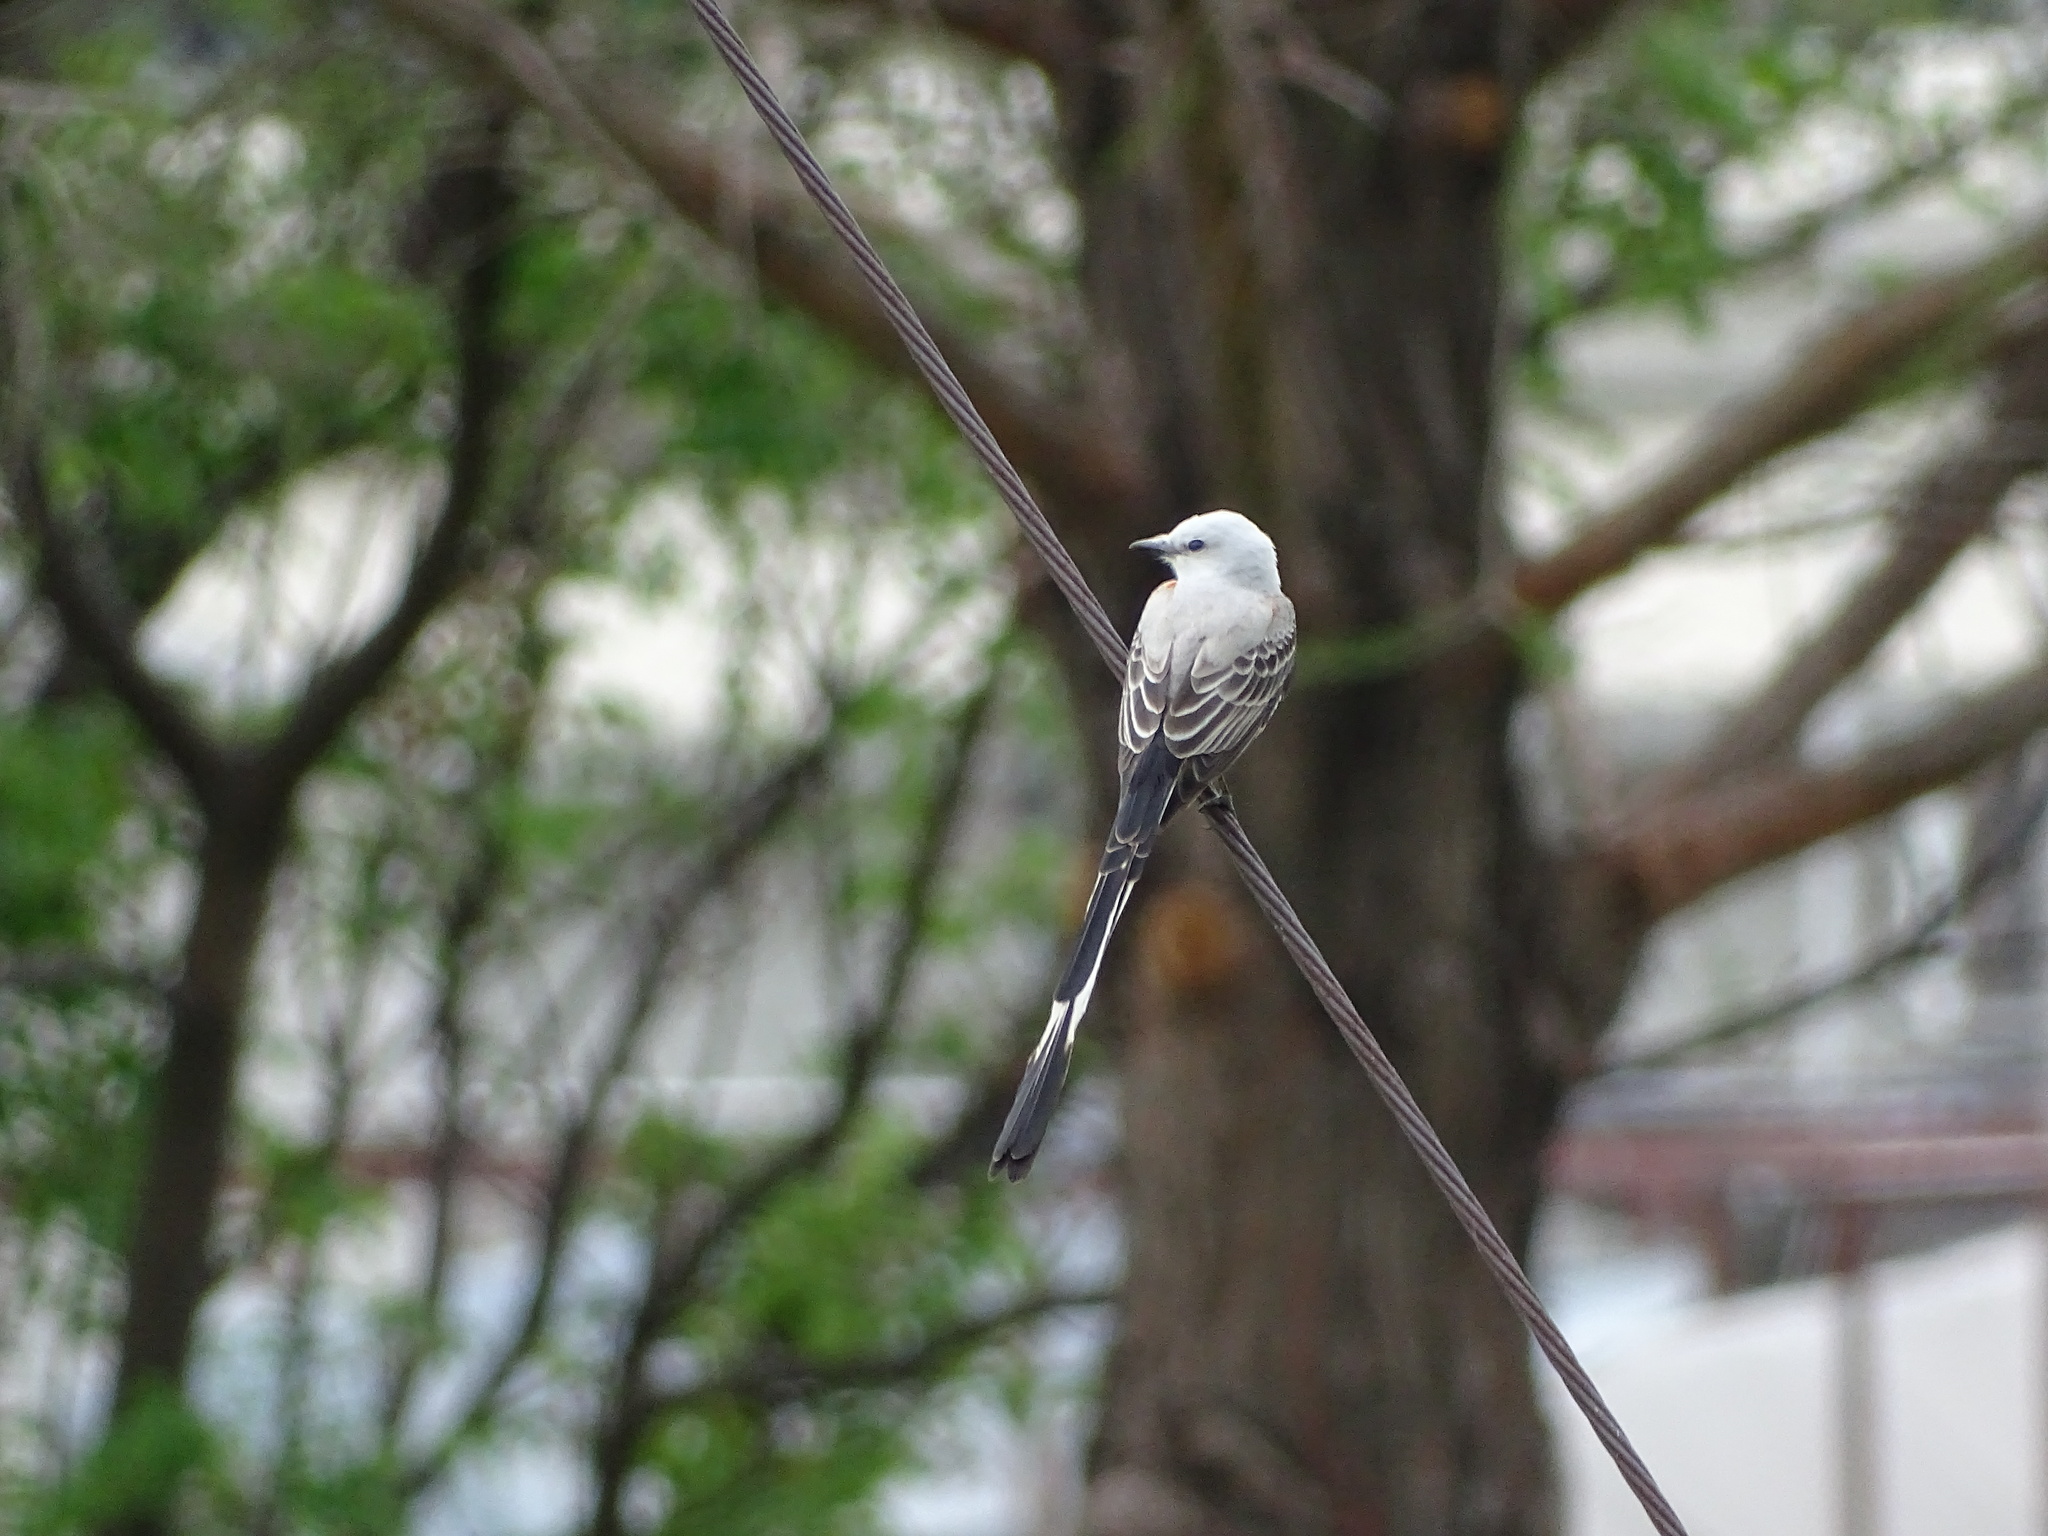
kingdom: Animalia
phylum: Chordata
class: Aves
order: Passeriformes
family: Tyrannidae
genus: Tyrannus
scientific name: Tyrannus forficatus
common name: Scissor-tailed flycatcher
